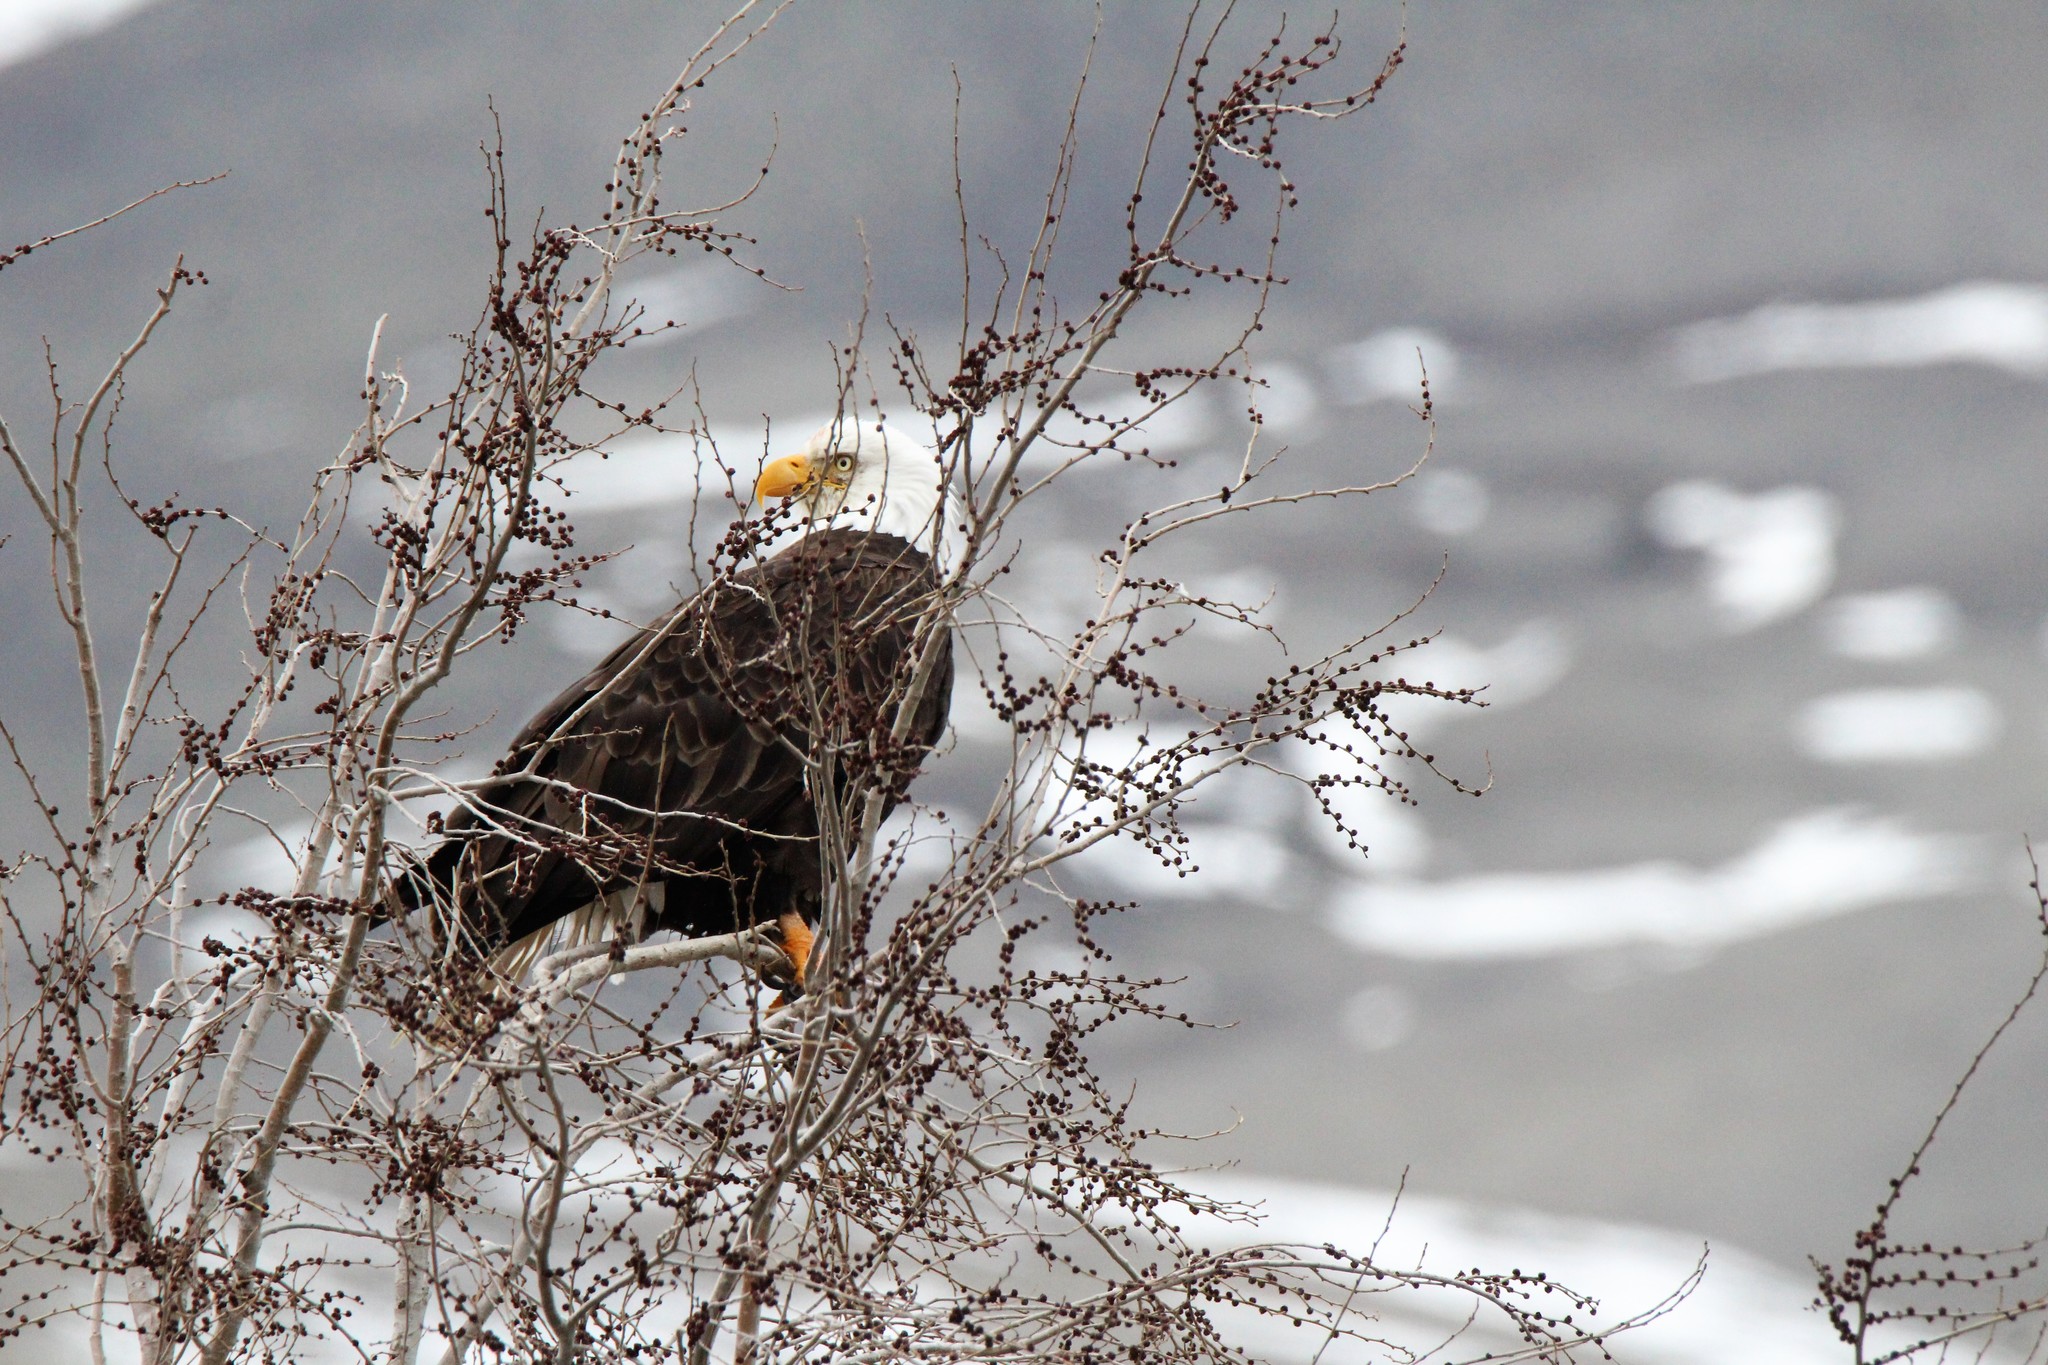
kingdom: Animalia
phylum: Chordata
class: Aves
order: Accipitriformes
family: Accipitridae
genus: Haliaeetus
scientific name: Haliaeetus leucocephalus
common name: Bald eagle
